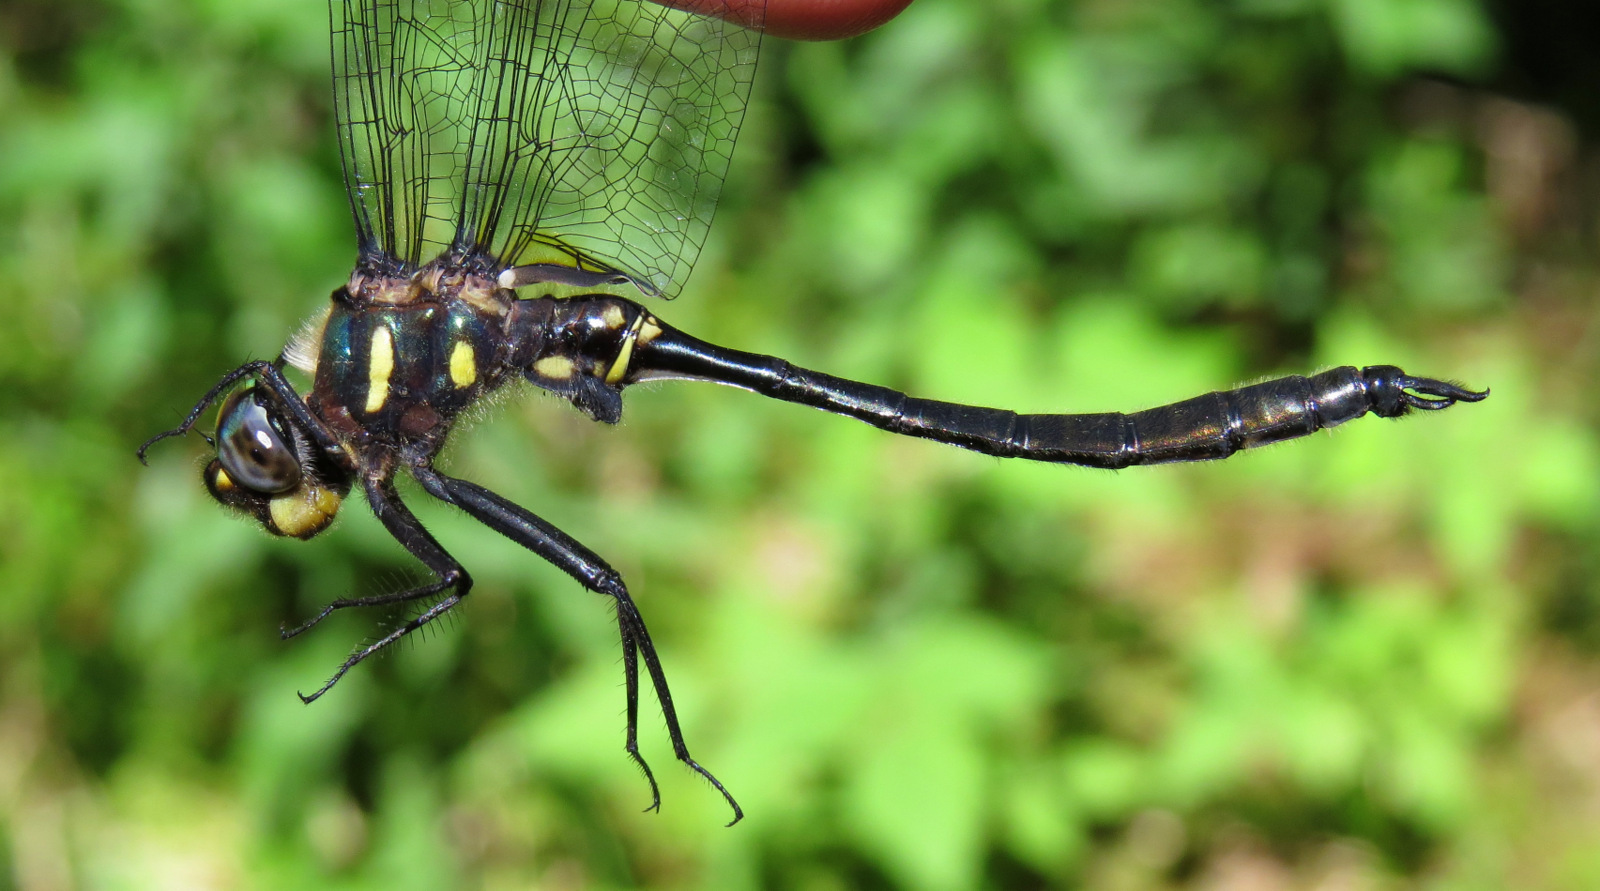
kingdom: Animalia
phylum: Arthropoda
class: Insecta
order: Odonata
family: Corduliidae
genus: Somatochlora
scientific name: Somatochlora elongata
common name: Ski-tipped emerald
